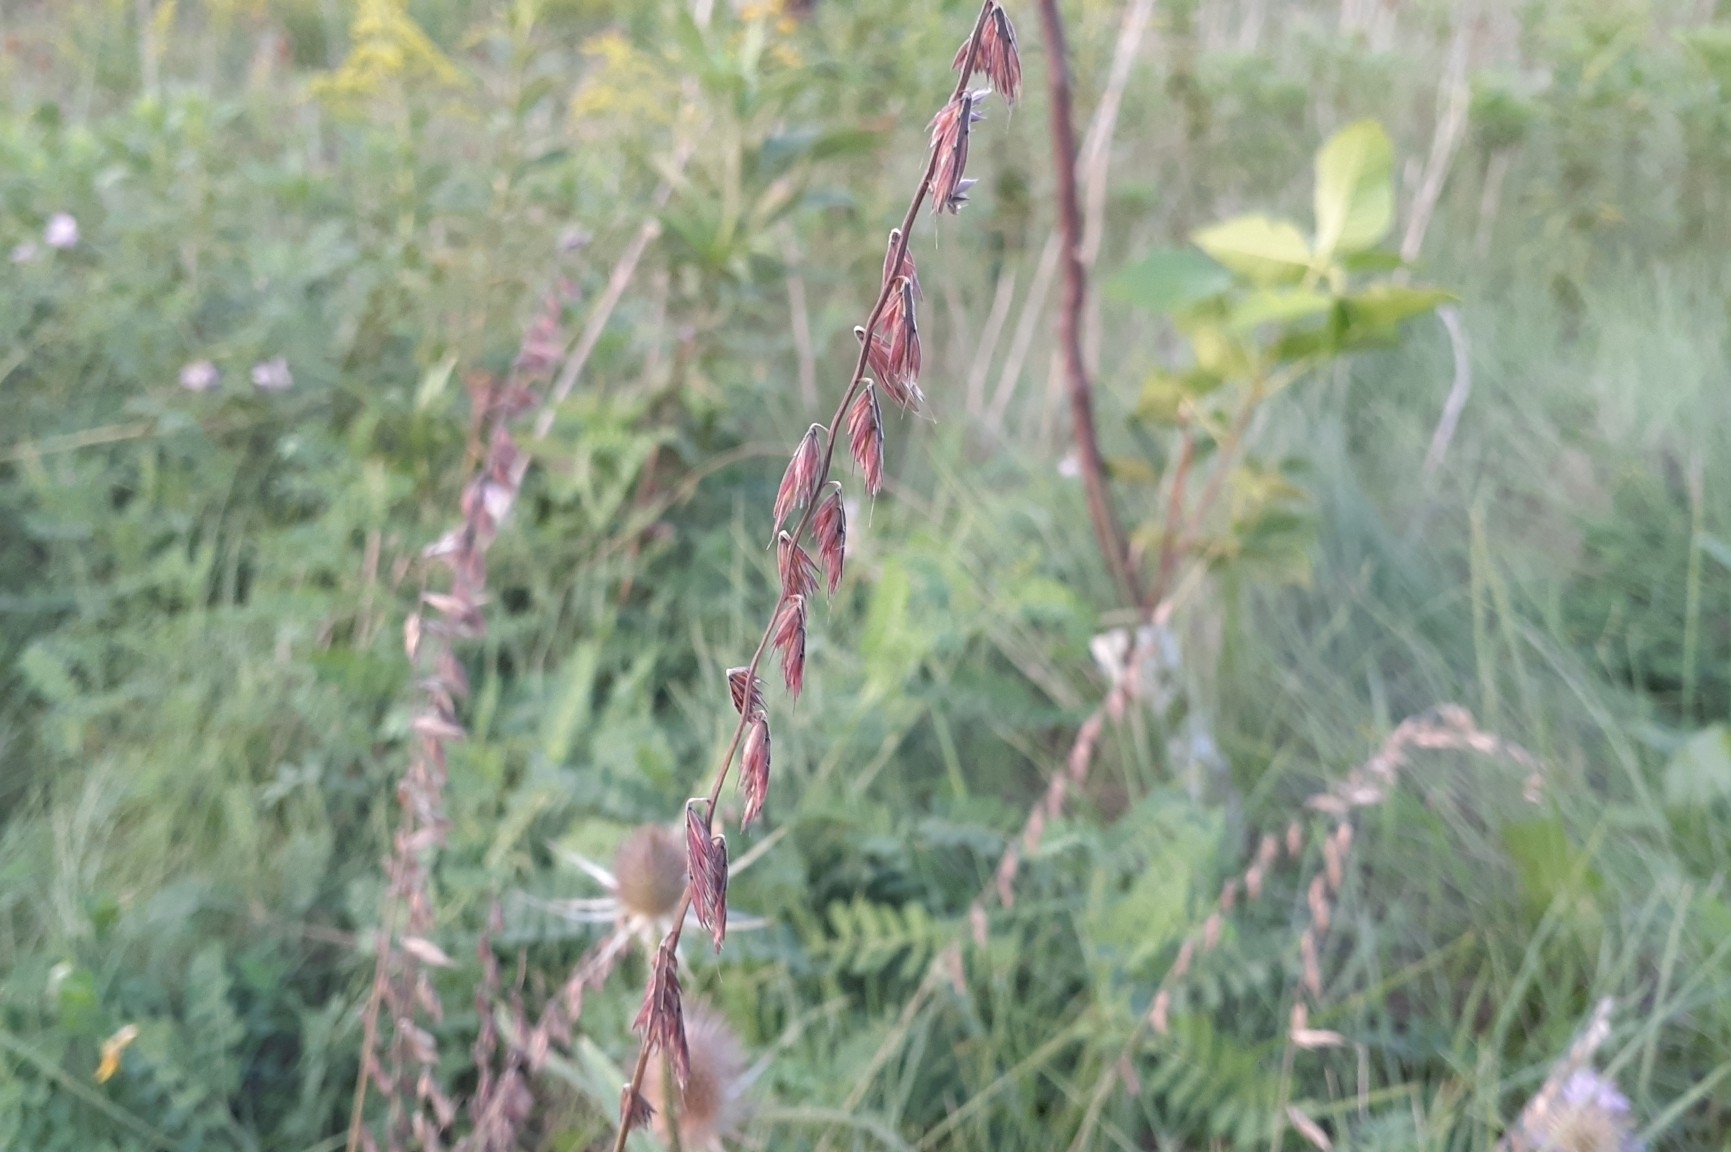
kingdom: Plantae
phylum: Tracheophyta
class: Liliopsida
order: Poales
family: Poaceae
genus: Bouteloua
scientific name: Bouteloua curtipendula
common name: Side-oats grama
